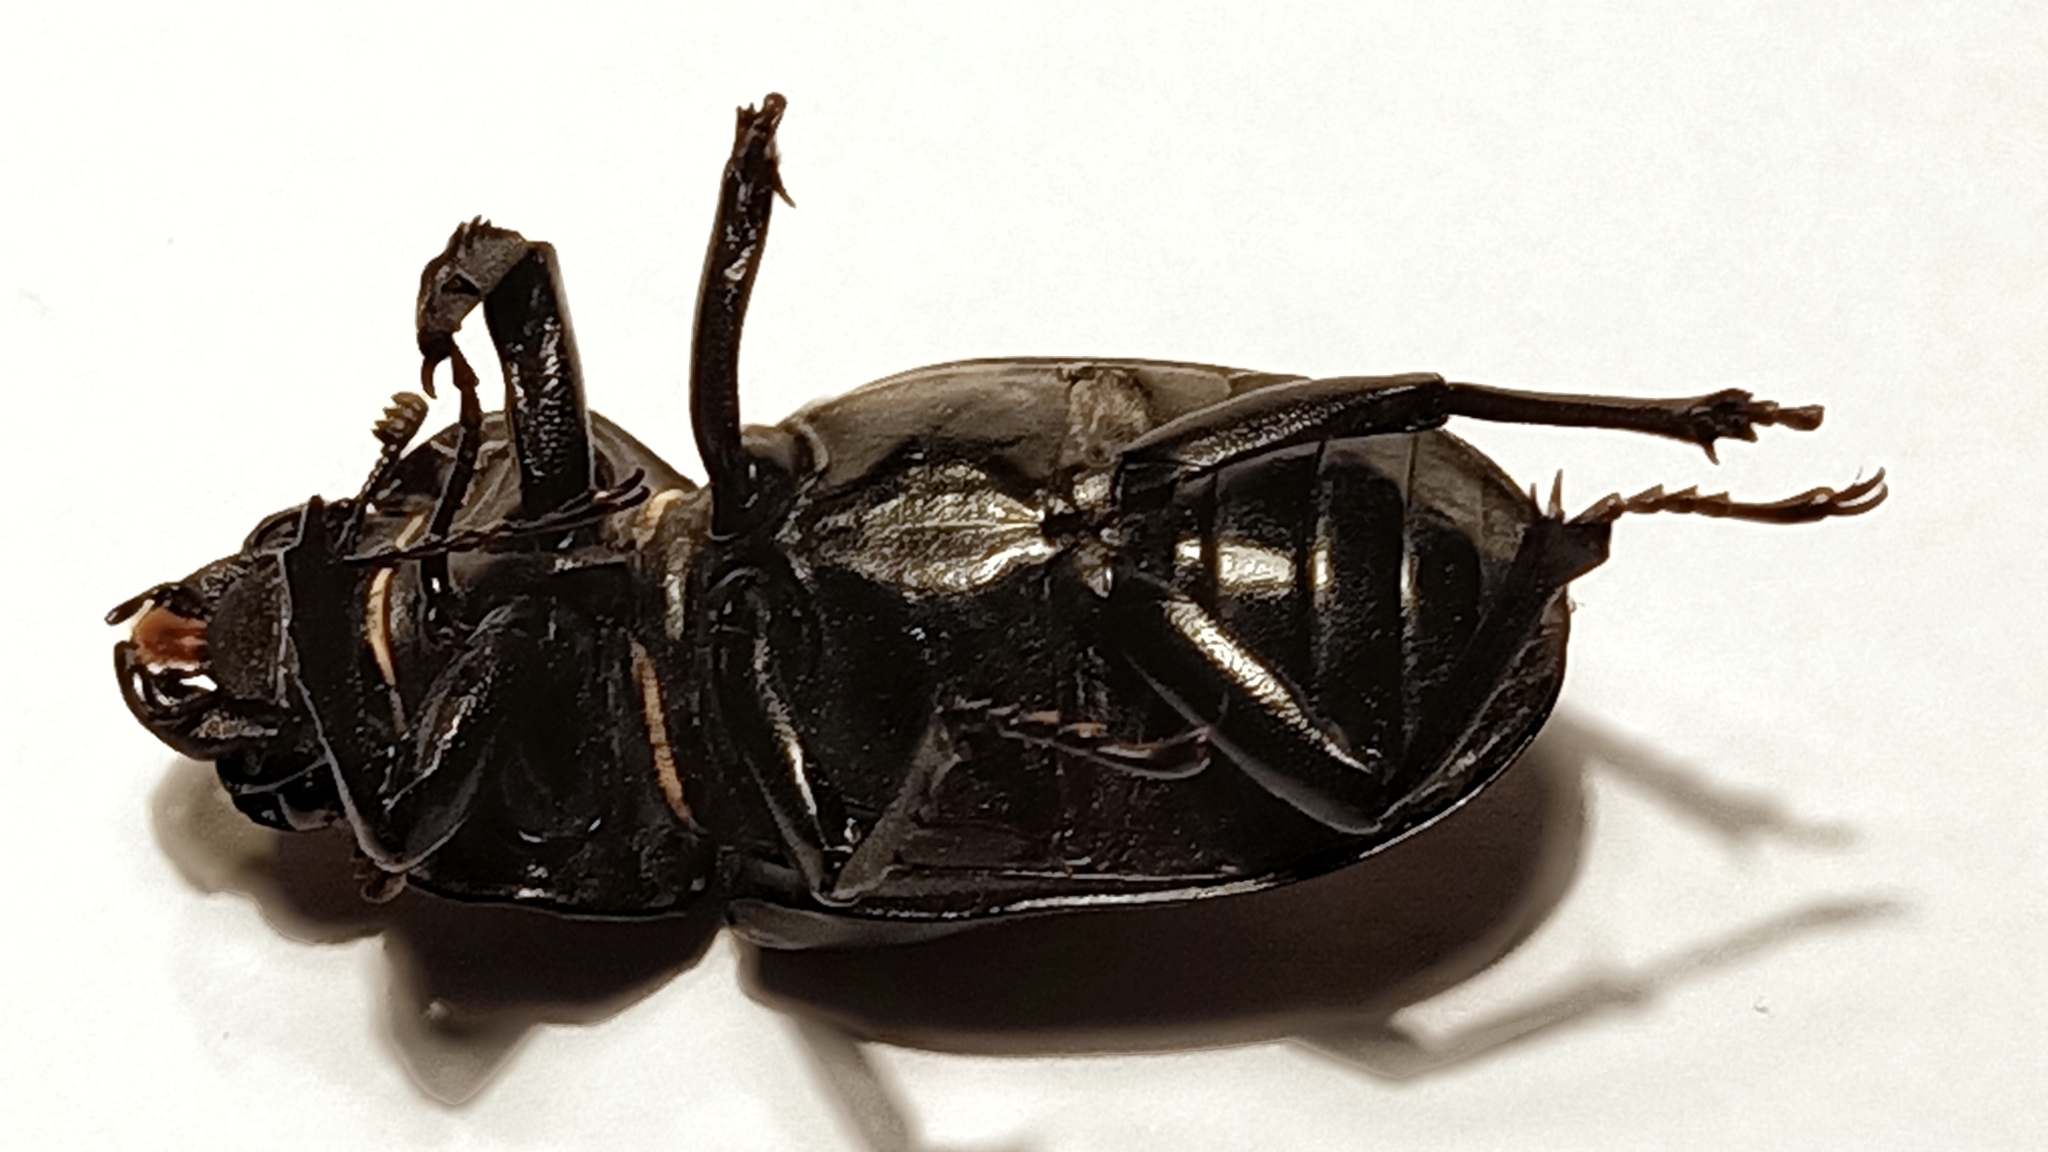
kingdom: Animalia
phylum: Arthropoda
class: Insecta
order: Coleoptera
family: Lucanidae
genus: Lucanus
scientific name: Lucanus cervus
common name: Stag beetle
